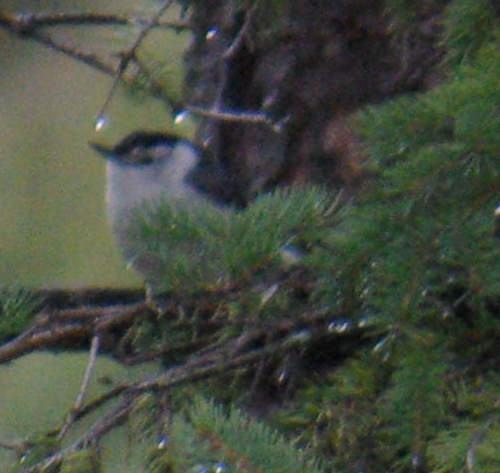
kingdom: Animalia
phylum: Chordata
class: Aves
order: Passeriformes
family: Sittidae
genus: Sitta
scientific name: Sitta carolinensis
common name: White-breasted nuthatch
